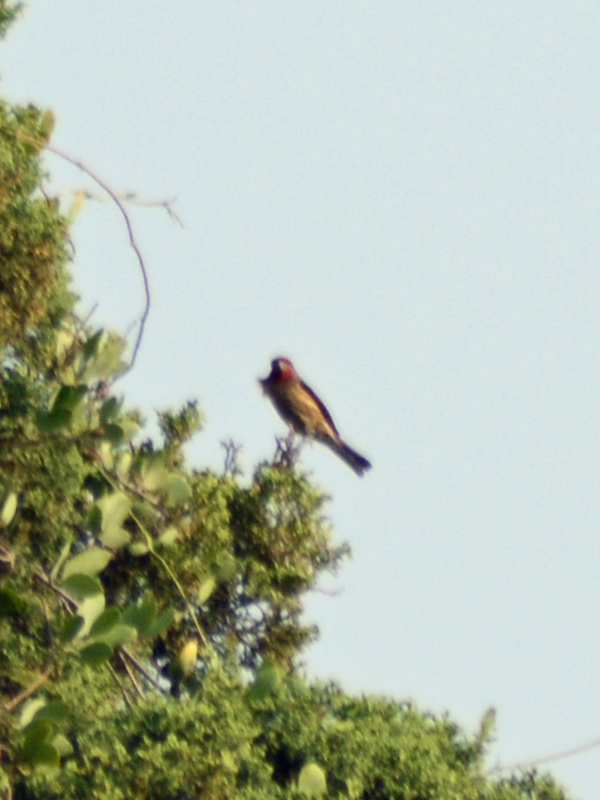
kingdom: Animalia
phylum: Chordata
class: Aves
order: Passeriformes
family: Fringillidae
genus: Haemorhous
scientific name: Haemorhous mexicanus
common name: House finch
